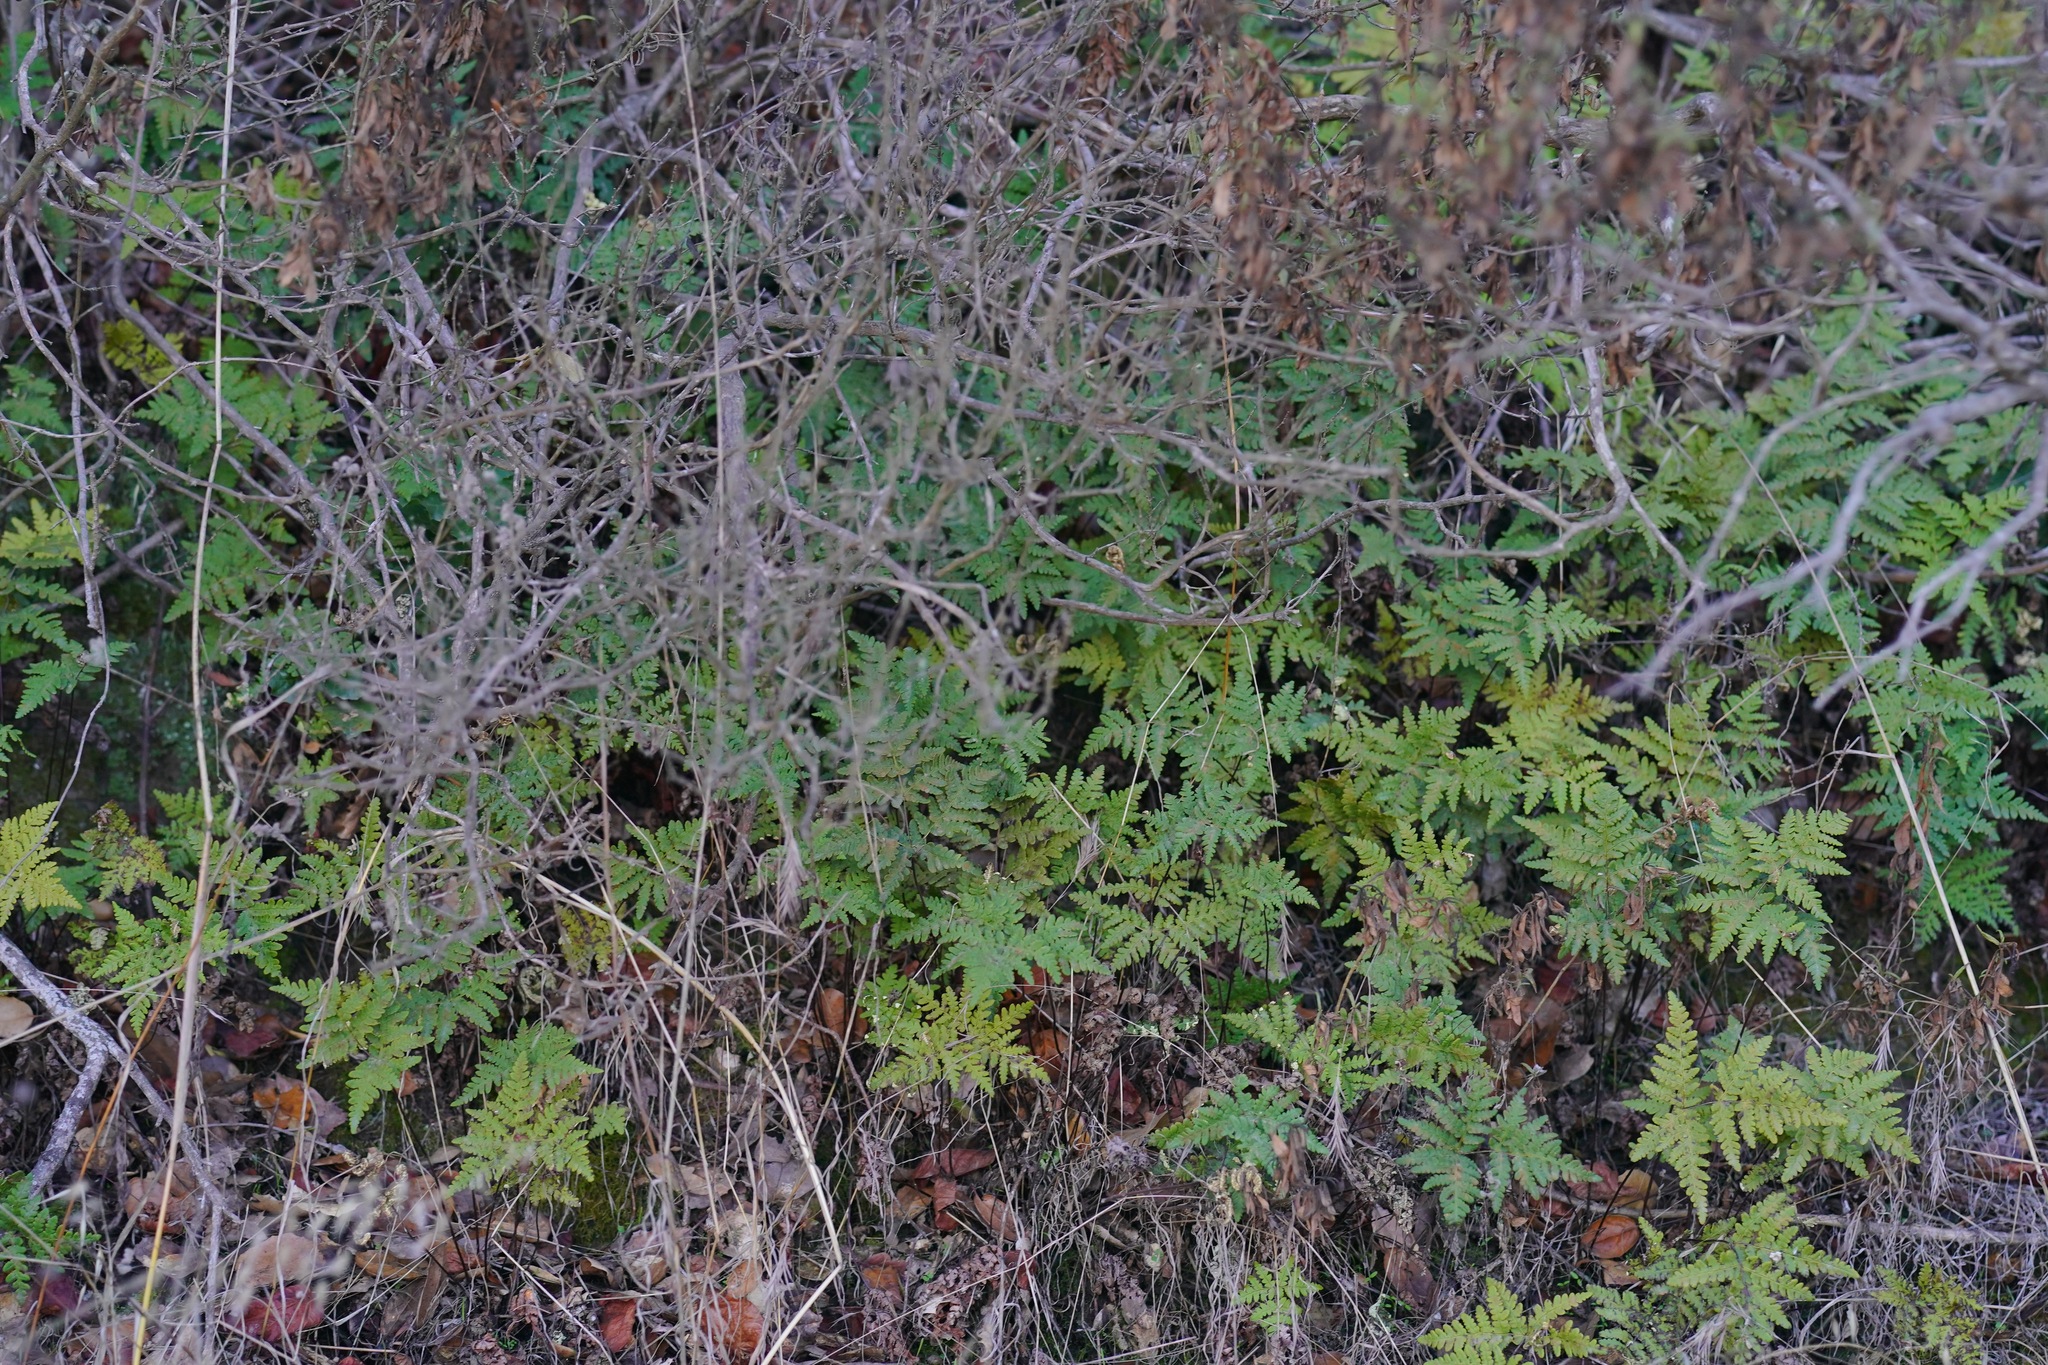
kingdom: Plantae
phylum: Tracheophyta
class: Polypodiopsida
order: Polypodiales
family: Pteridaceae
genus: Pentagramma
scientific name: Pentagramma triangularis
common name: Gold fern
